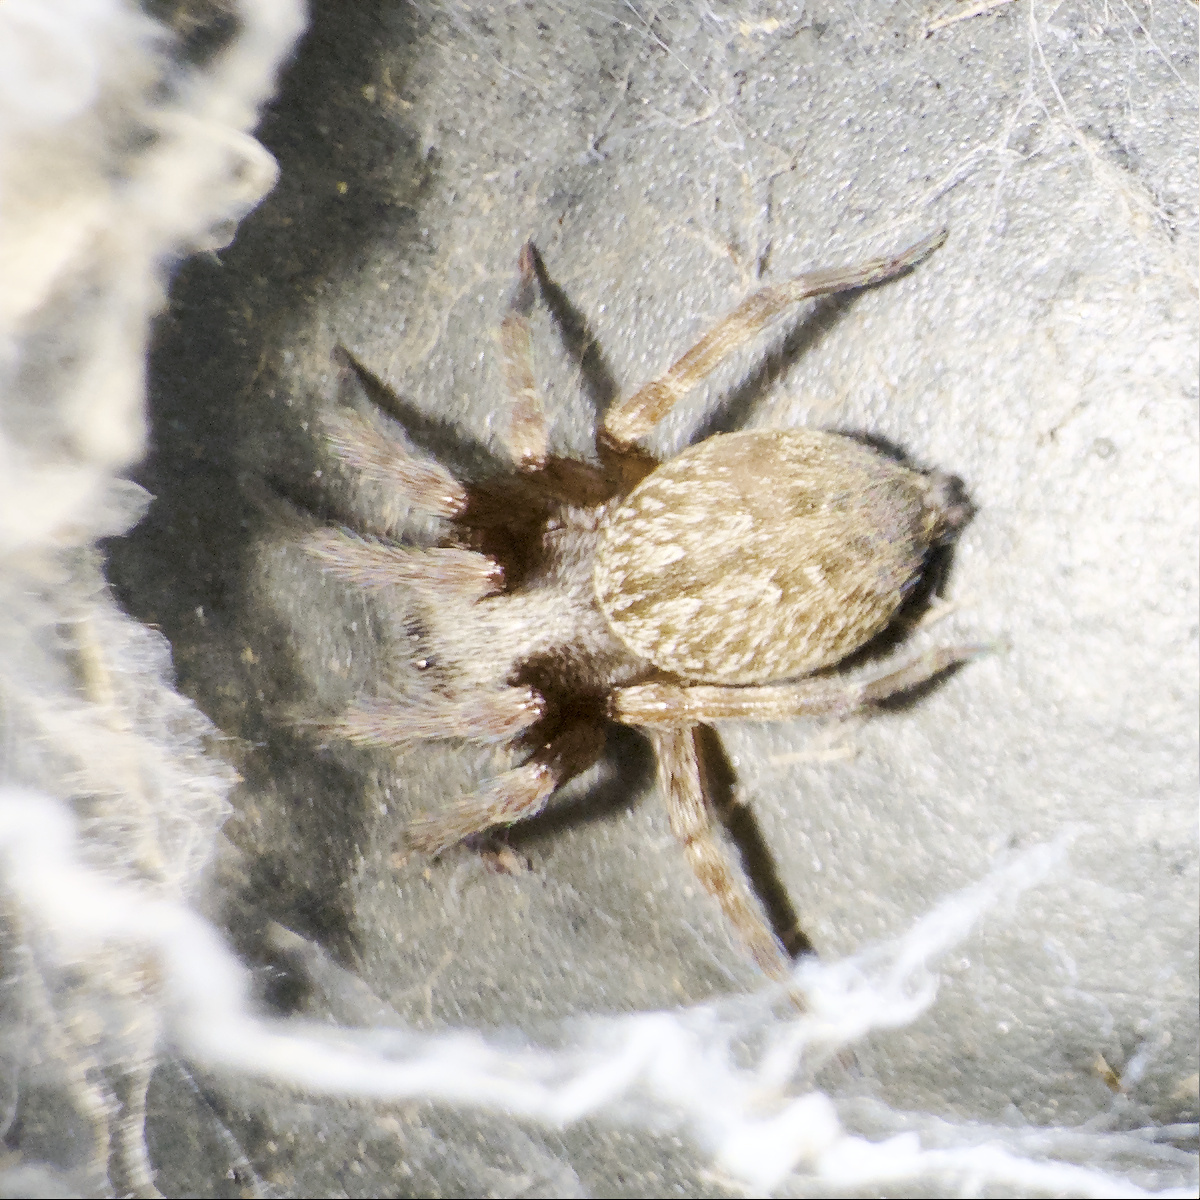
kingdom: Animalia
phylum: Arthropoda
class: Arachnida
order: Araneae
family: Desidae
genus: Badumna
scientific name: Badumna longinqua
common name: Gray house spider
